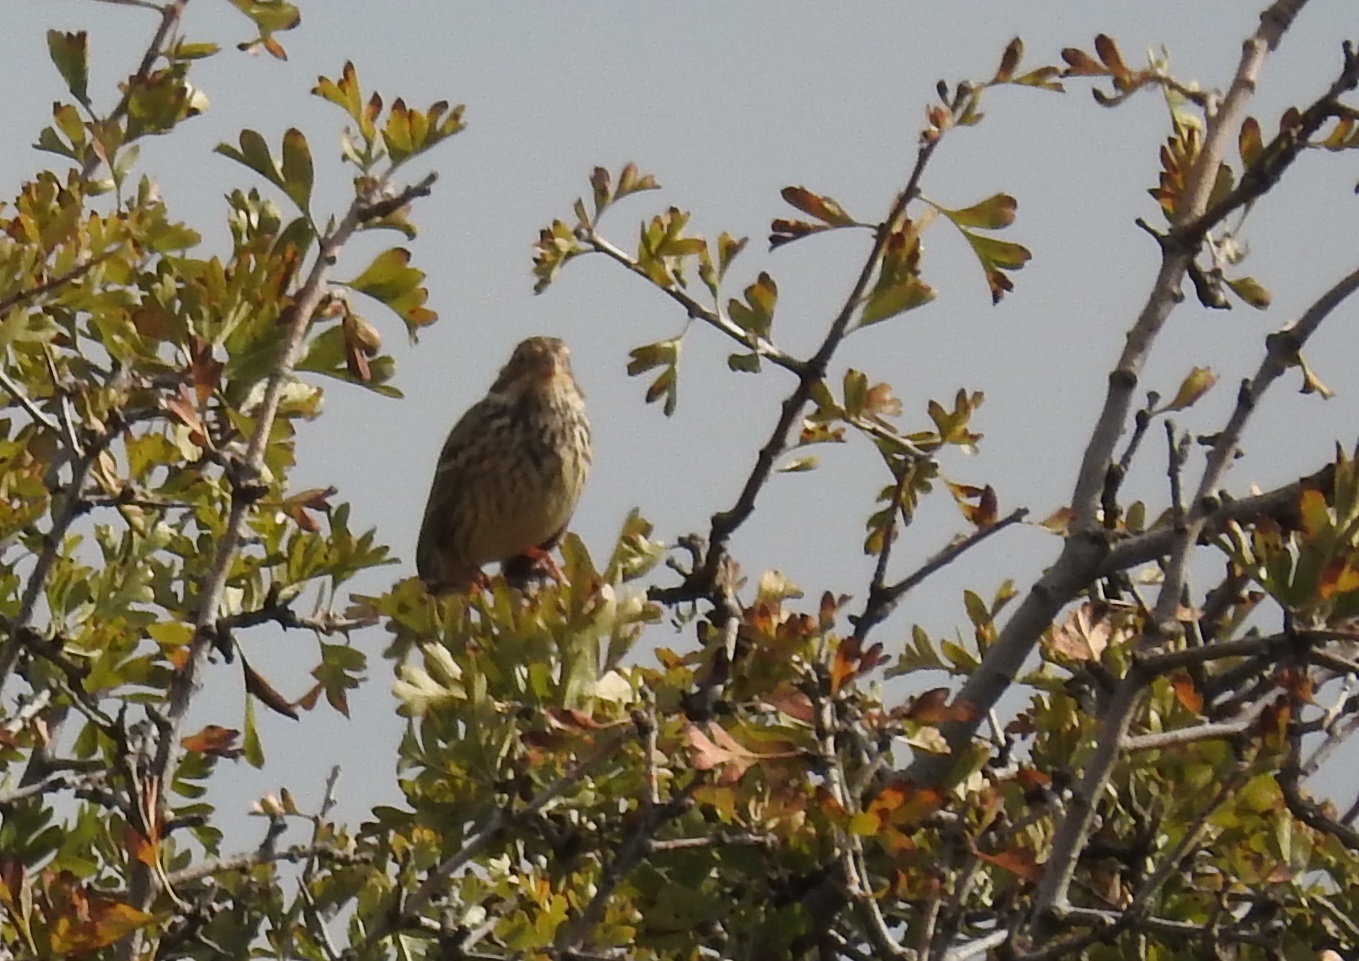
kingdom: Animalia
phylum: Chordata
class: Aves
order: Passeriformes
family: Emberizidae
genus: Emberiza
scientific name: Emberiza calandra
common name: Corn bunting
